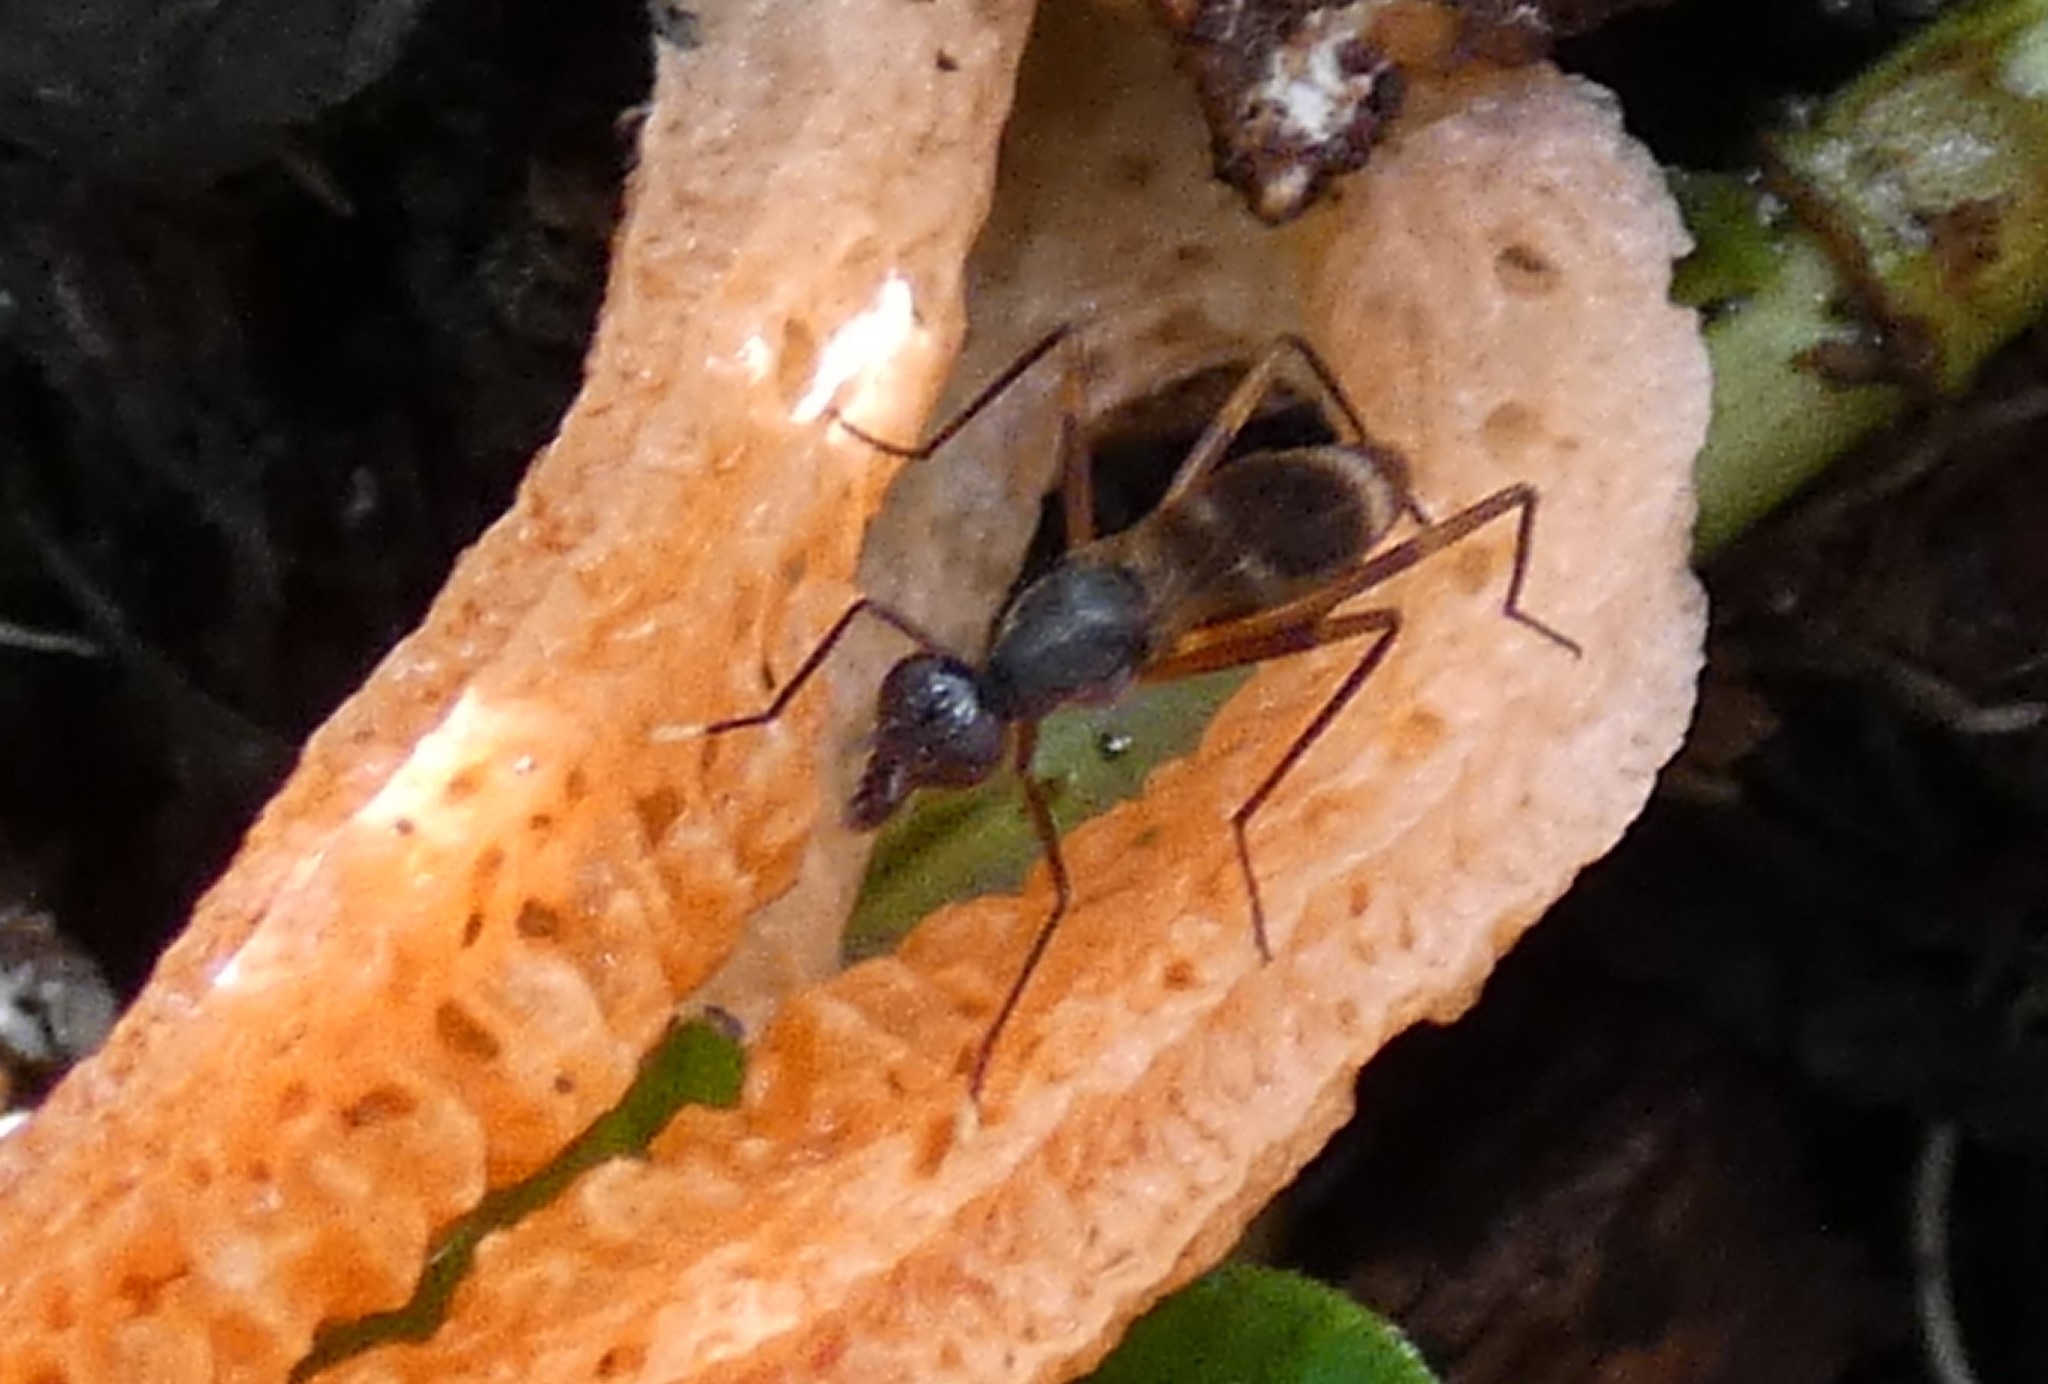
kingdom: Animalia
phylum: Arthropoda
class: Insecta
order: Diptera
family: Micropezidae
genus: Taeniaptera
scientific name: Taeniaptera trivittata
